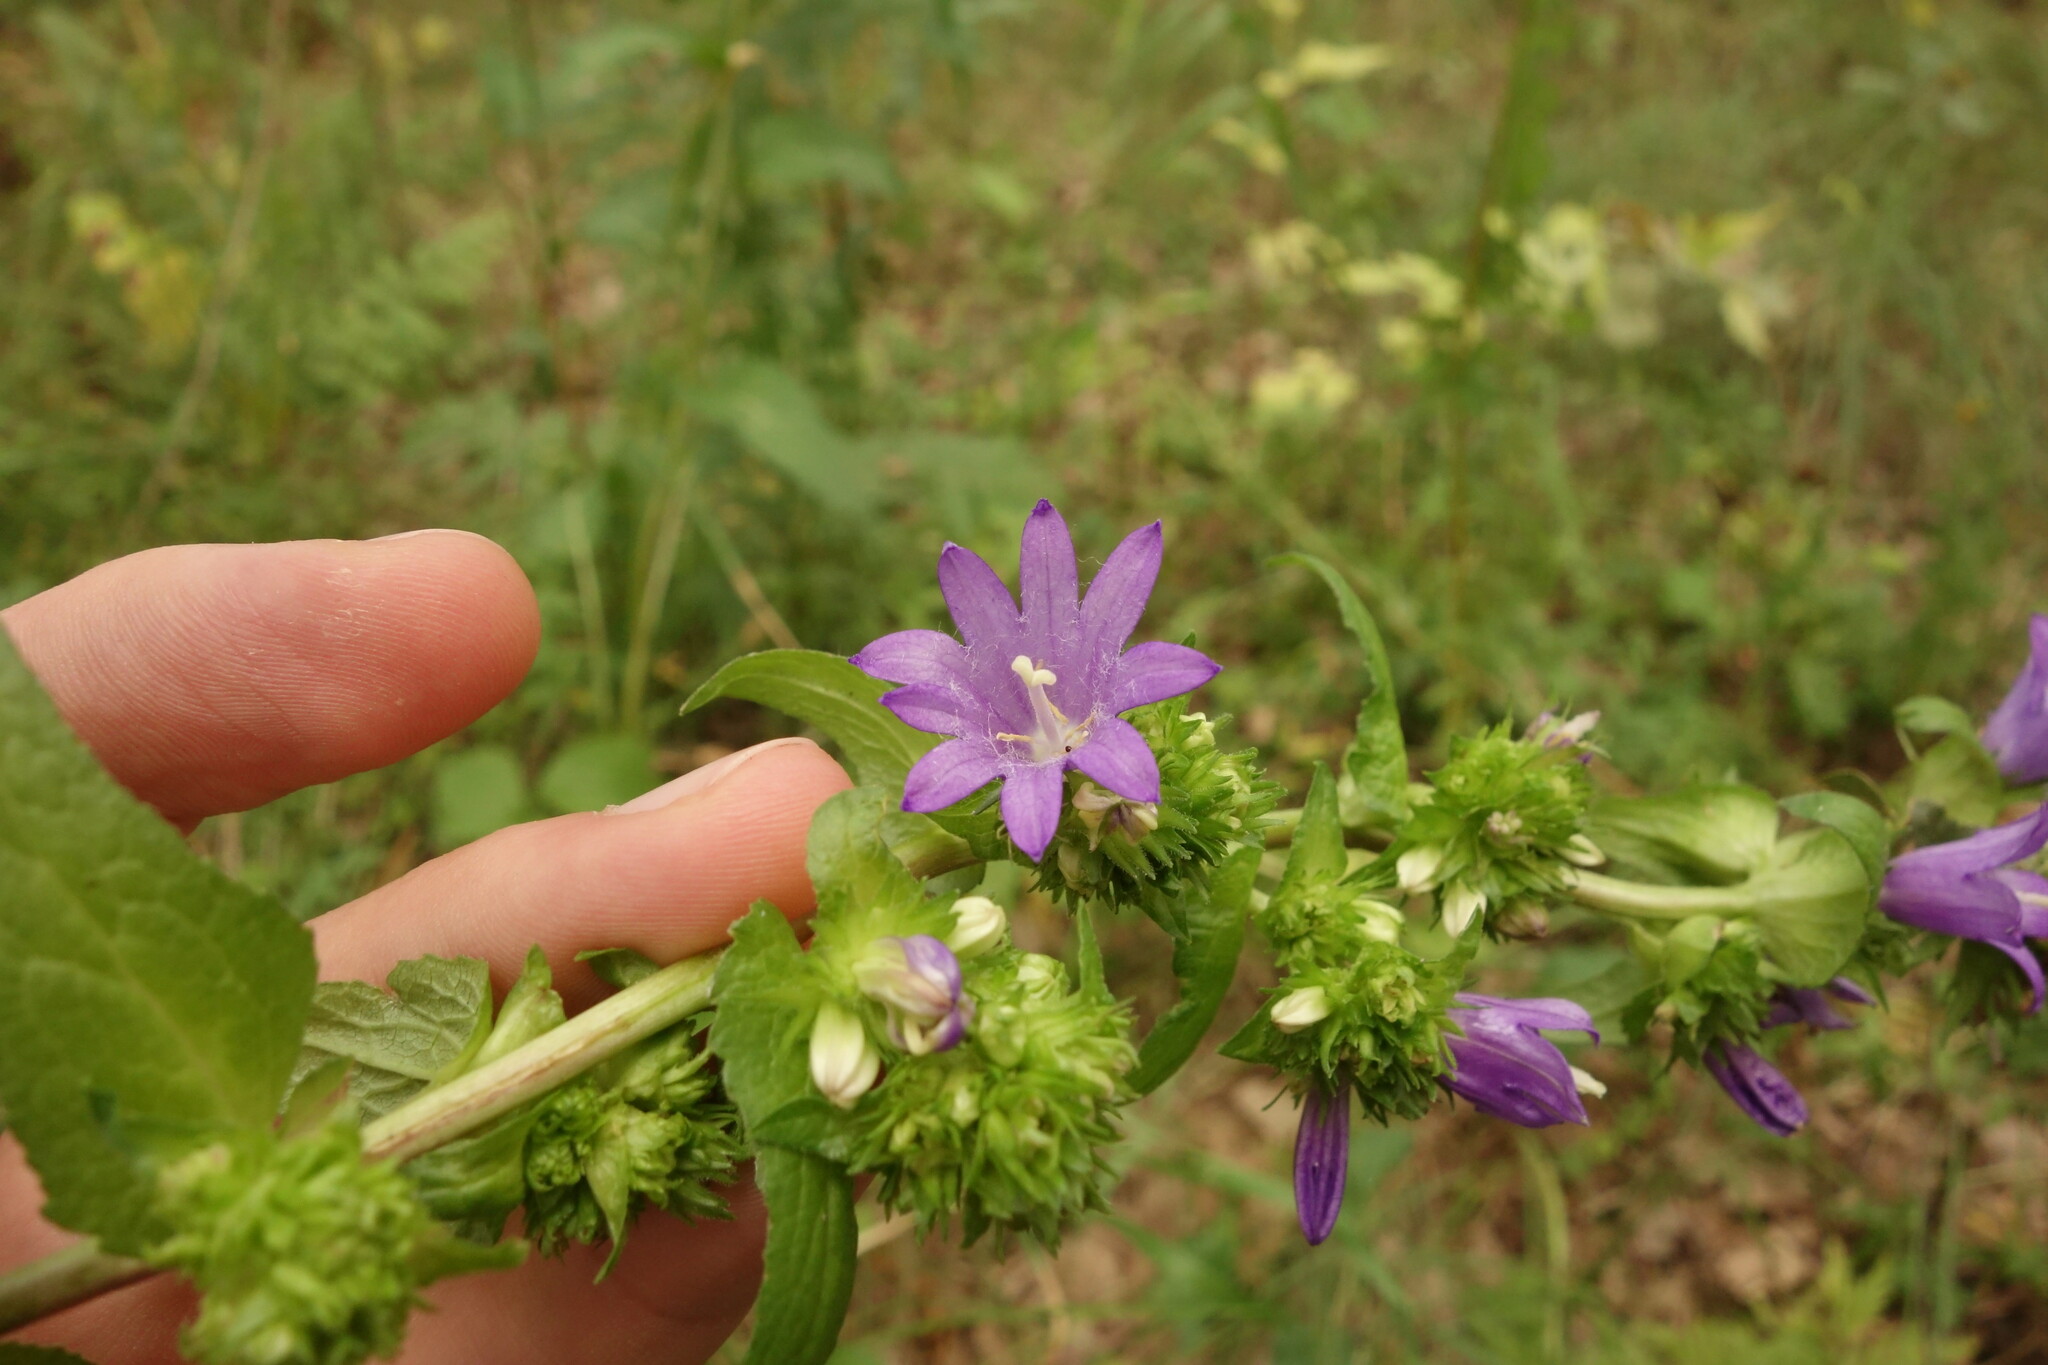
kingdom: Plantae
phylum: Tracheophyta
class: Magnoliopsida
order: Asterales
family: Campanulaceae
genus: Campanula
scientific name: Campanula glomerata
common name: Clustered bellflower
